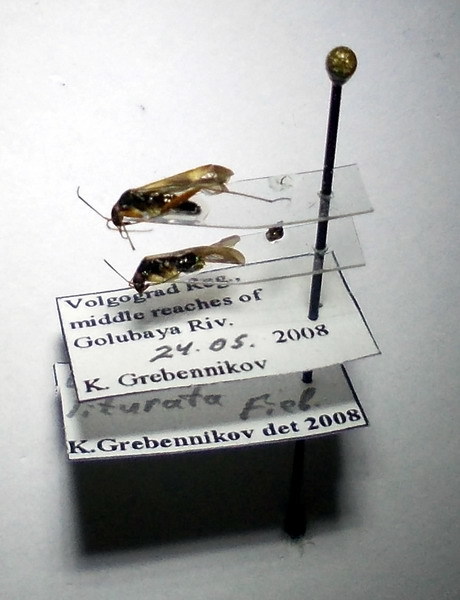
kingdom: Animalia
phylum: Arthropoda
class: Insecta
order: Hemiptera
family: Miridae
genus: Ethelastia
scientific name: Ethelastia liturata
